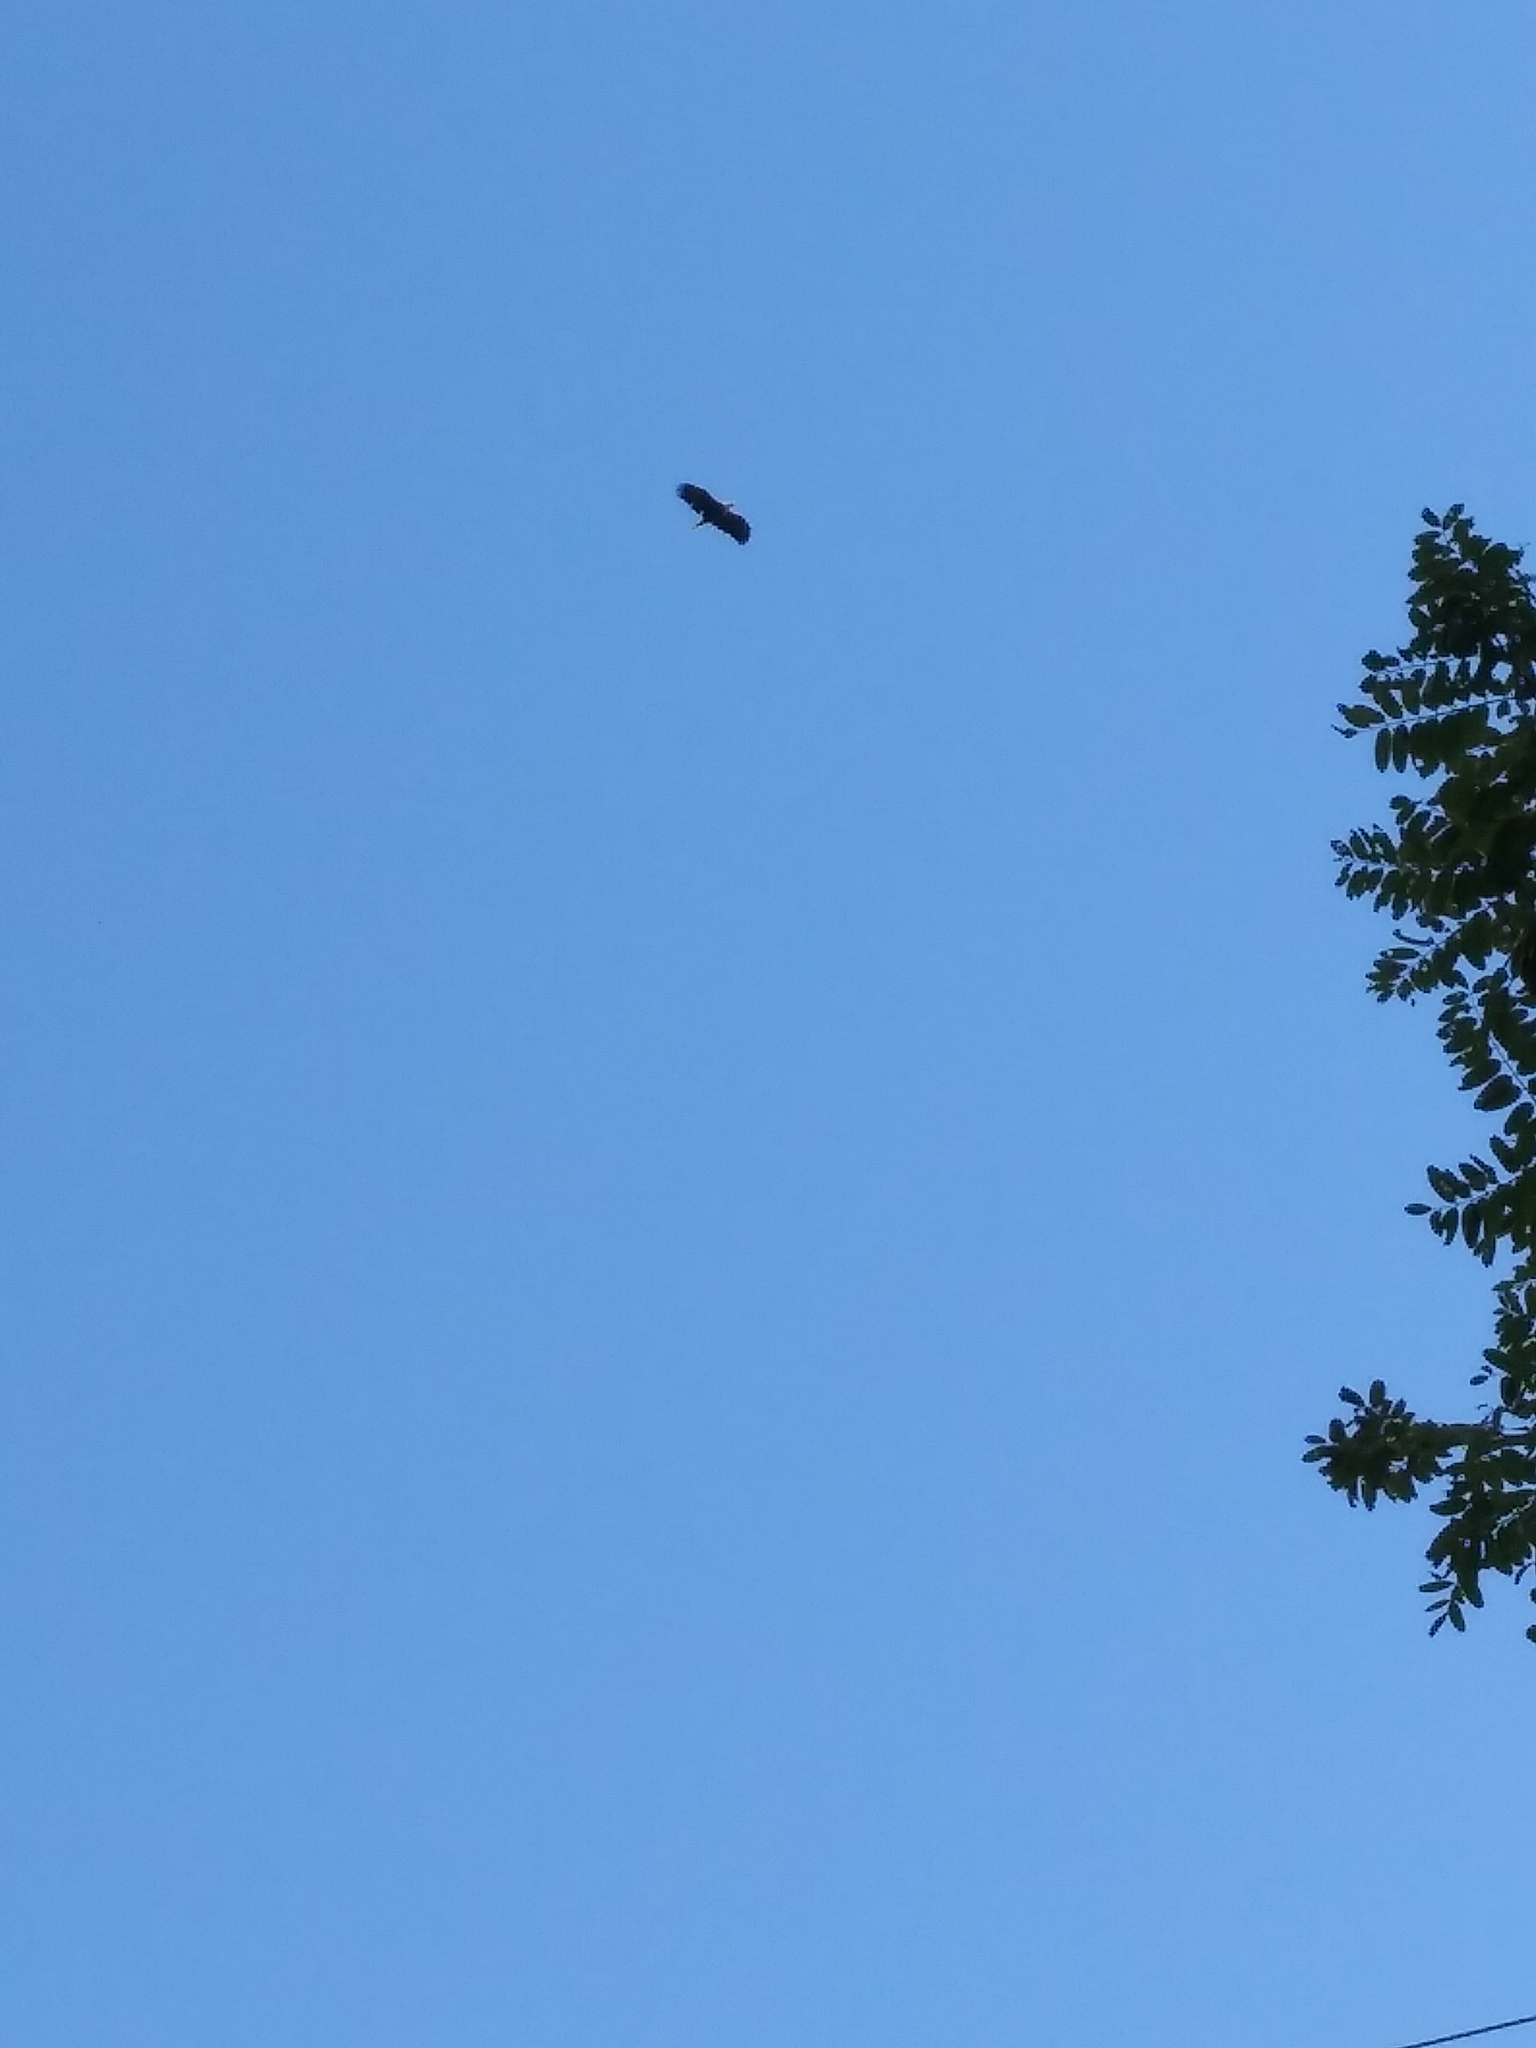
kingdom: Animalia
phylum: Chordata
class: Aves
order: Accipitriformes
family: Accipitridae
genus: Haliaeetus
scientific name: Haliaeetus leucocephalus
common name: Bald eagle
